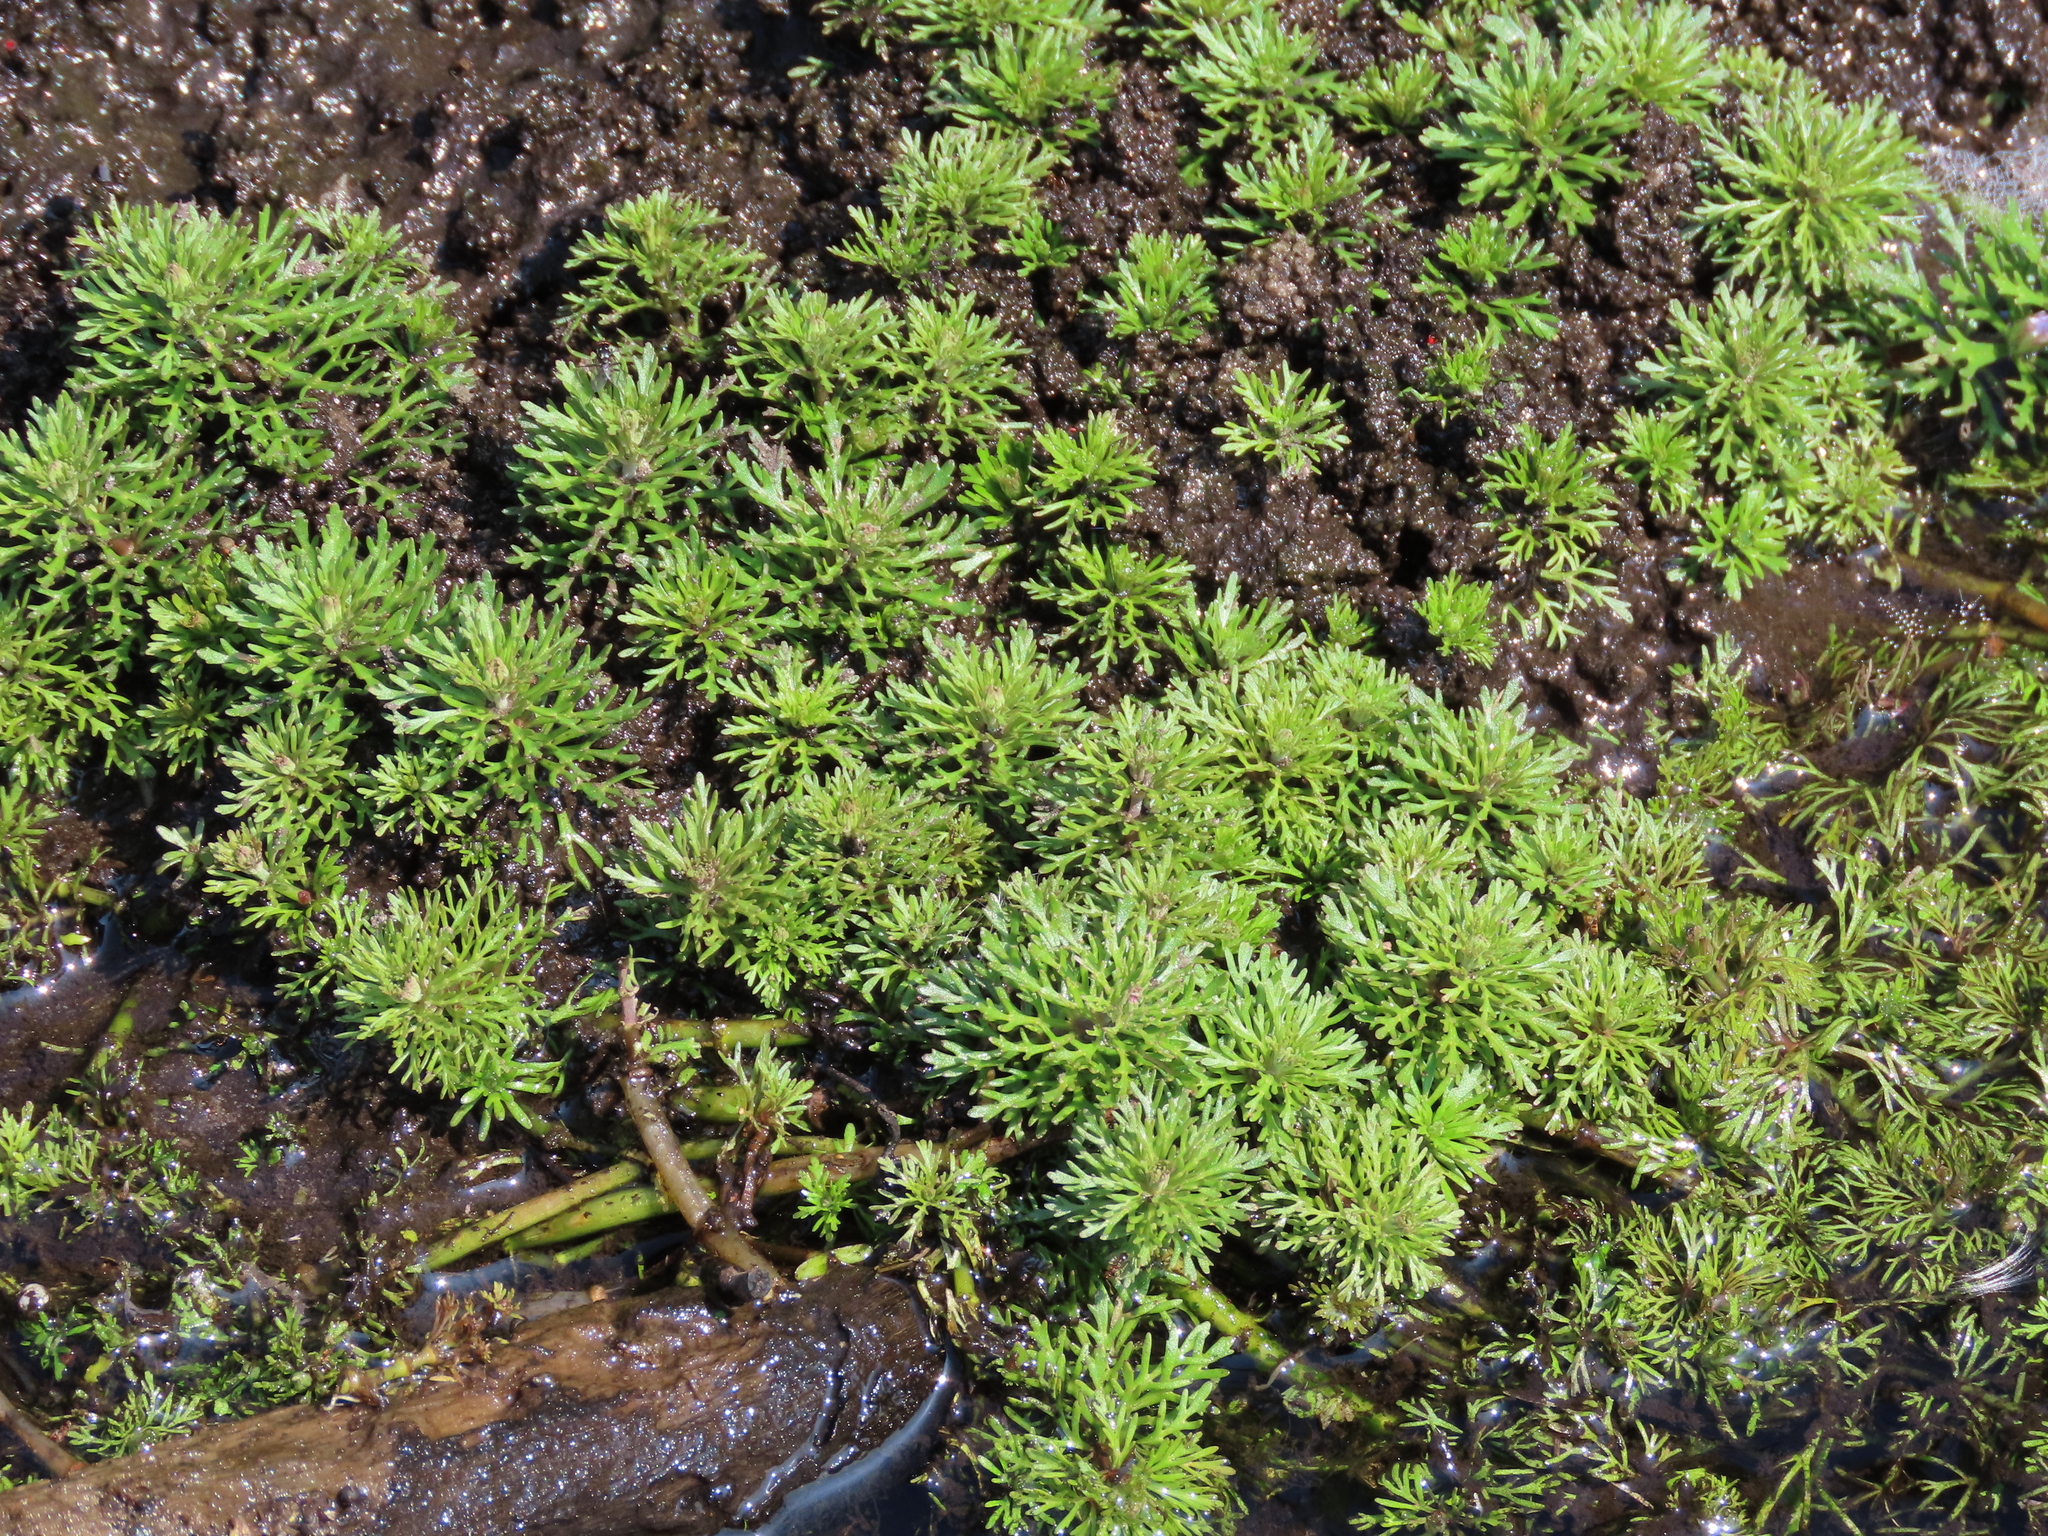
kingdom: Plantae
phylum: Tracheophyta
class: Magnoliopsida
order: Lamiales
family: Plantaginaceae
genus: Limnophila
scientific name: Limnophila sessiliflora
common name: Asian marshweed
